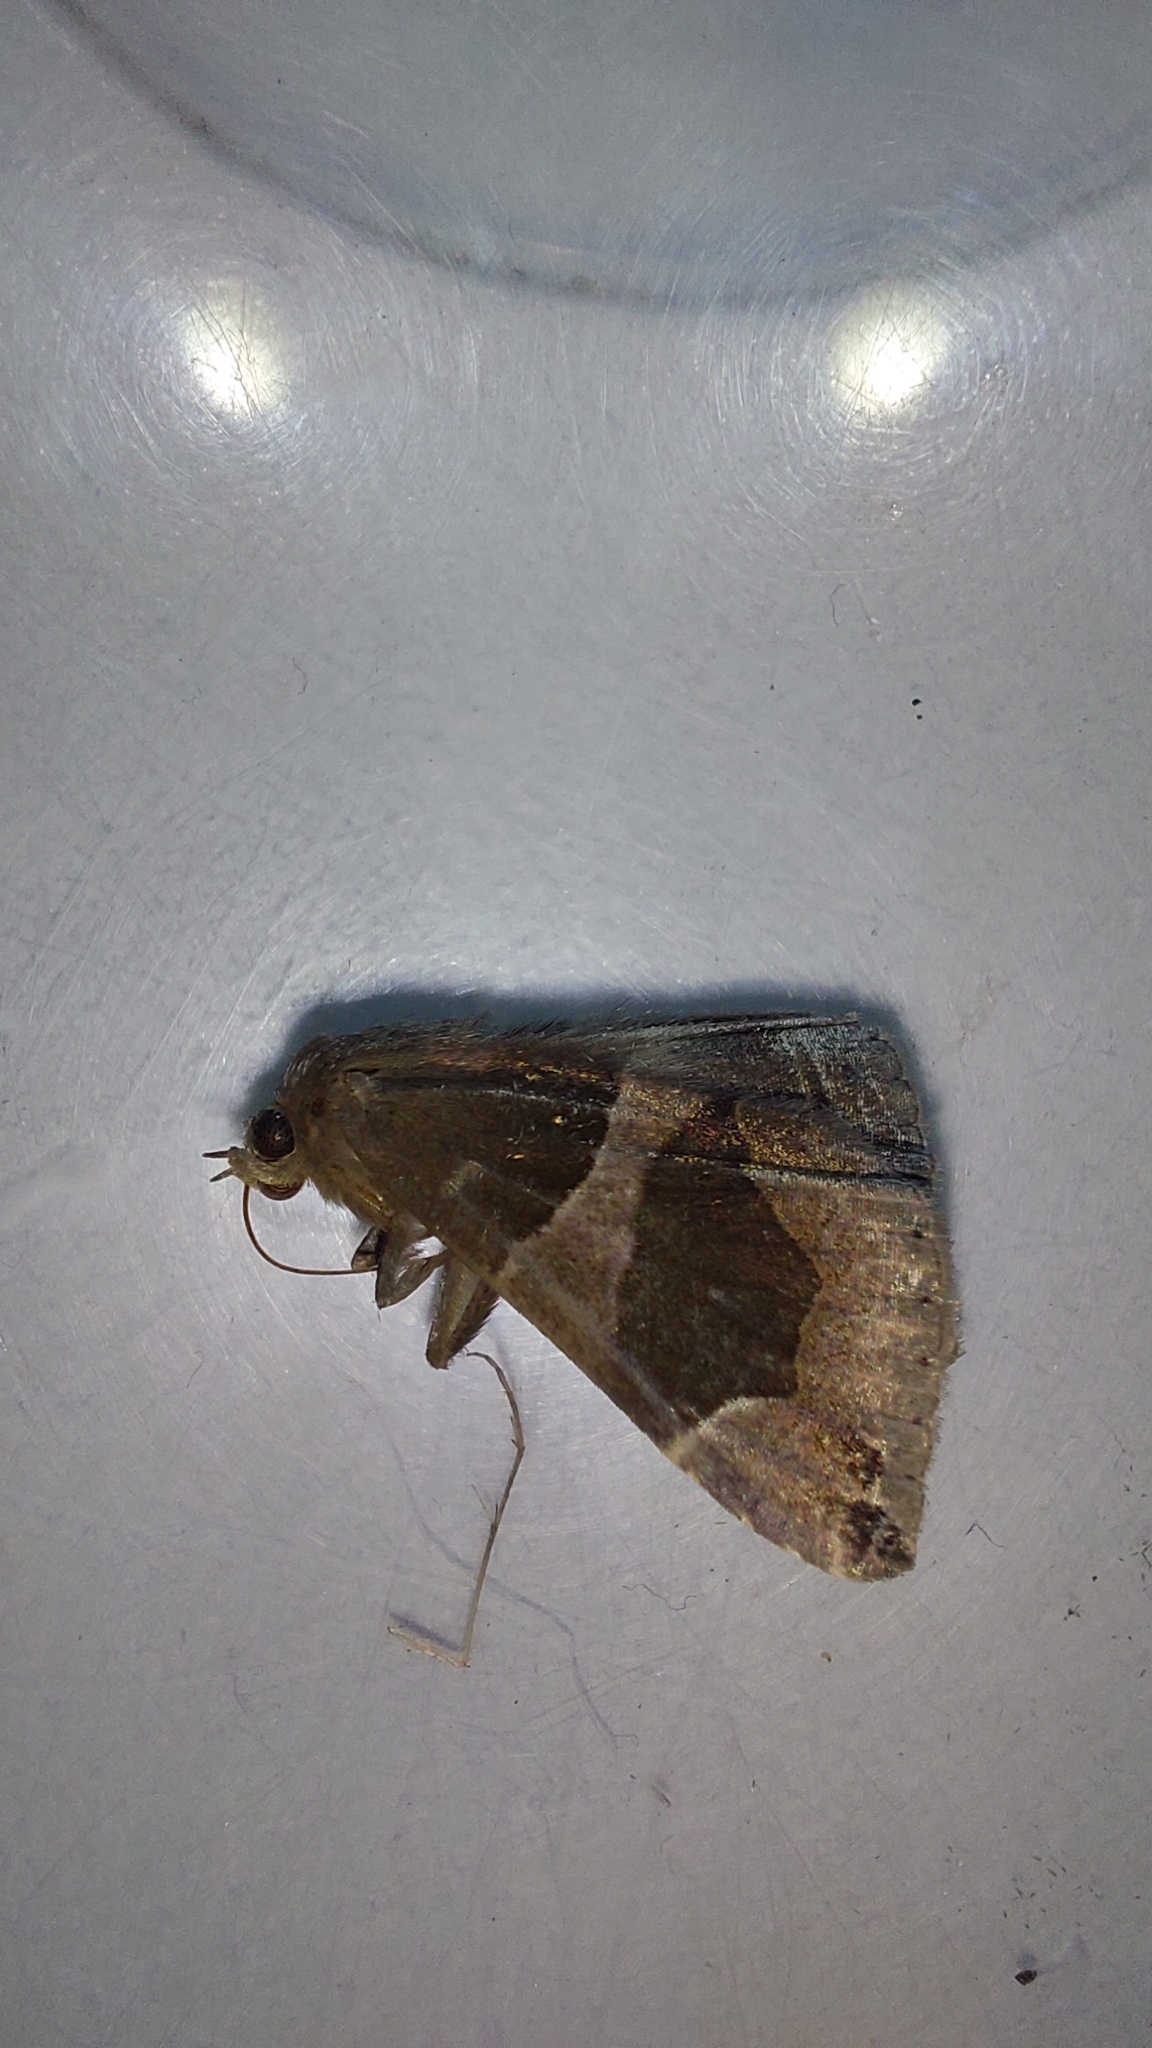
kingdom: Animalia
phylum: Arthropoda
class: Insecta
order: Lepidoptera
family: Erebidae
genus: Dysgonia
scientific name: Dysgonia algira
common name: Passenger
